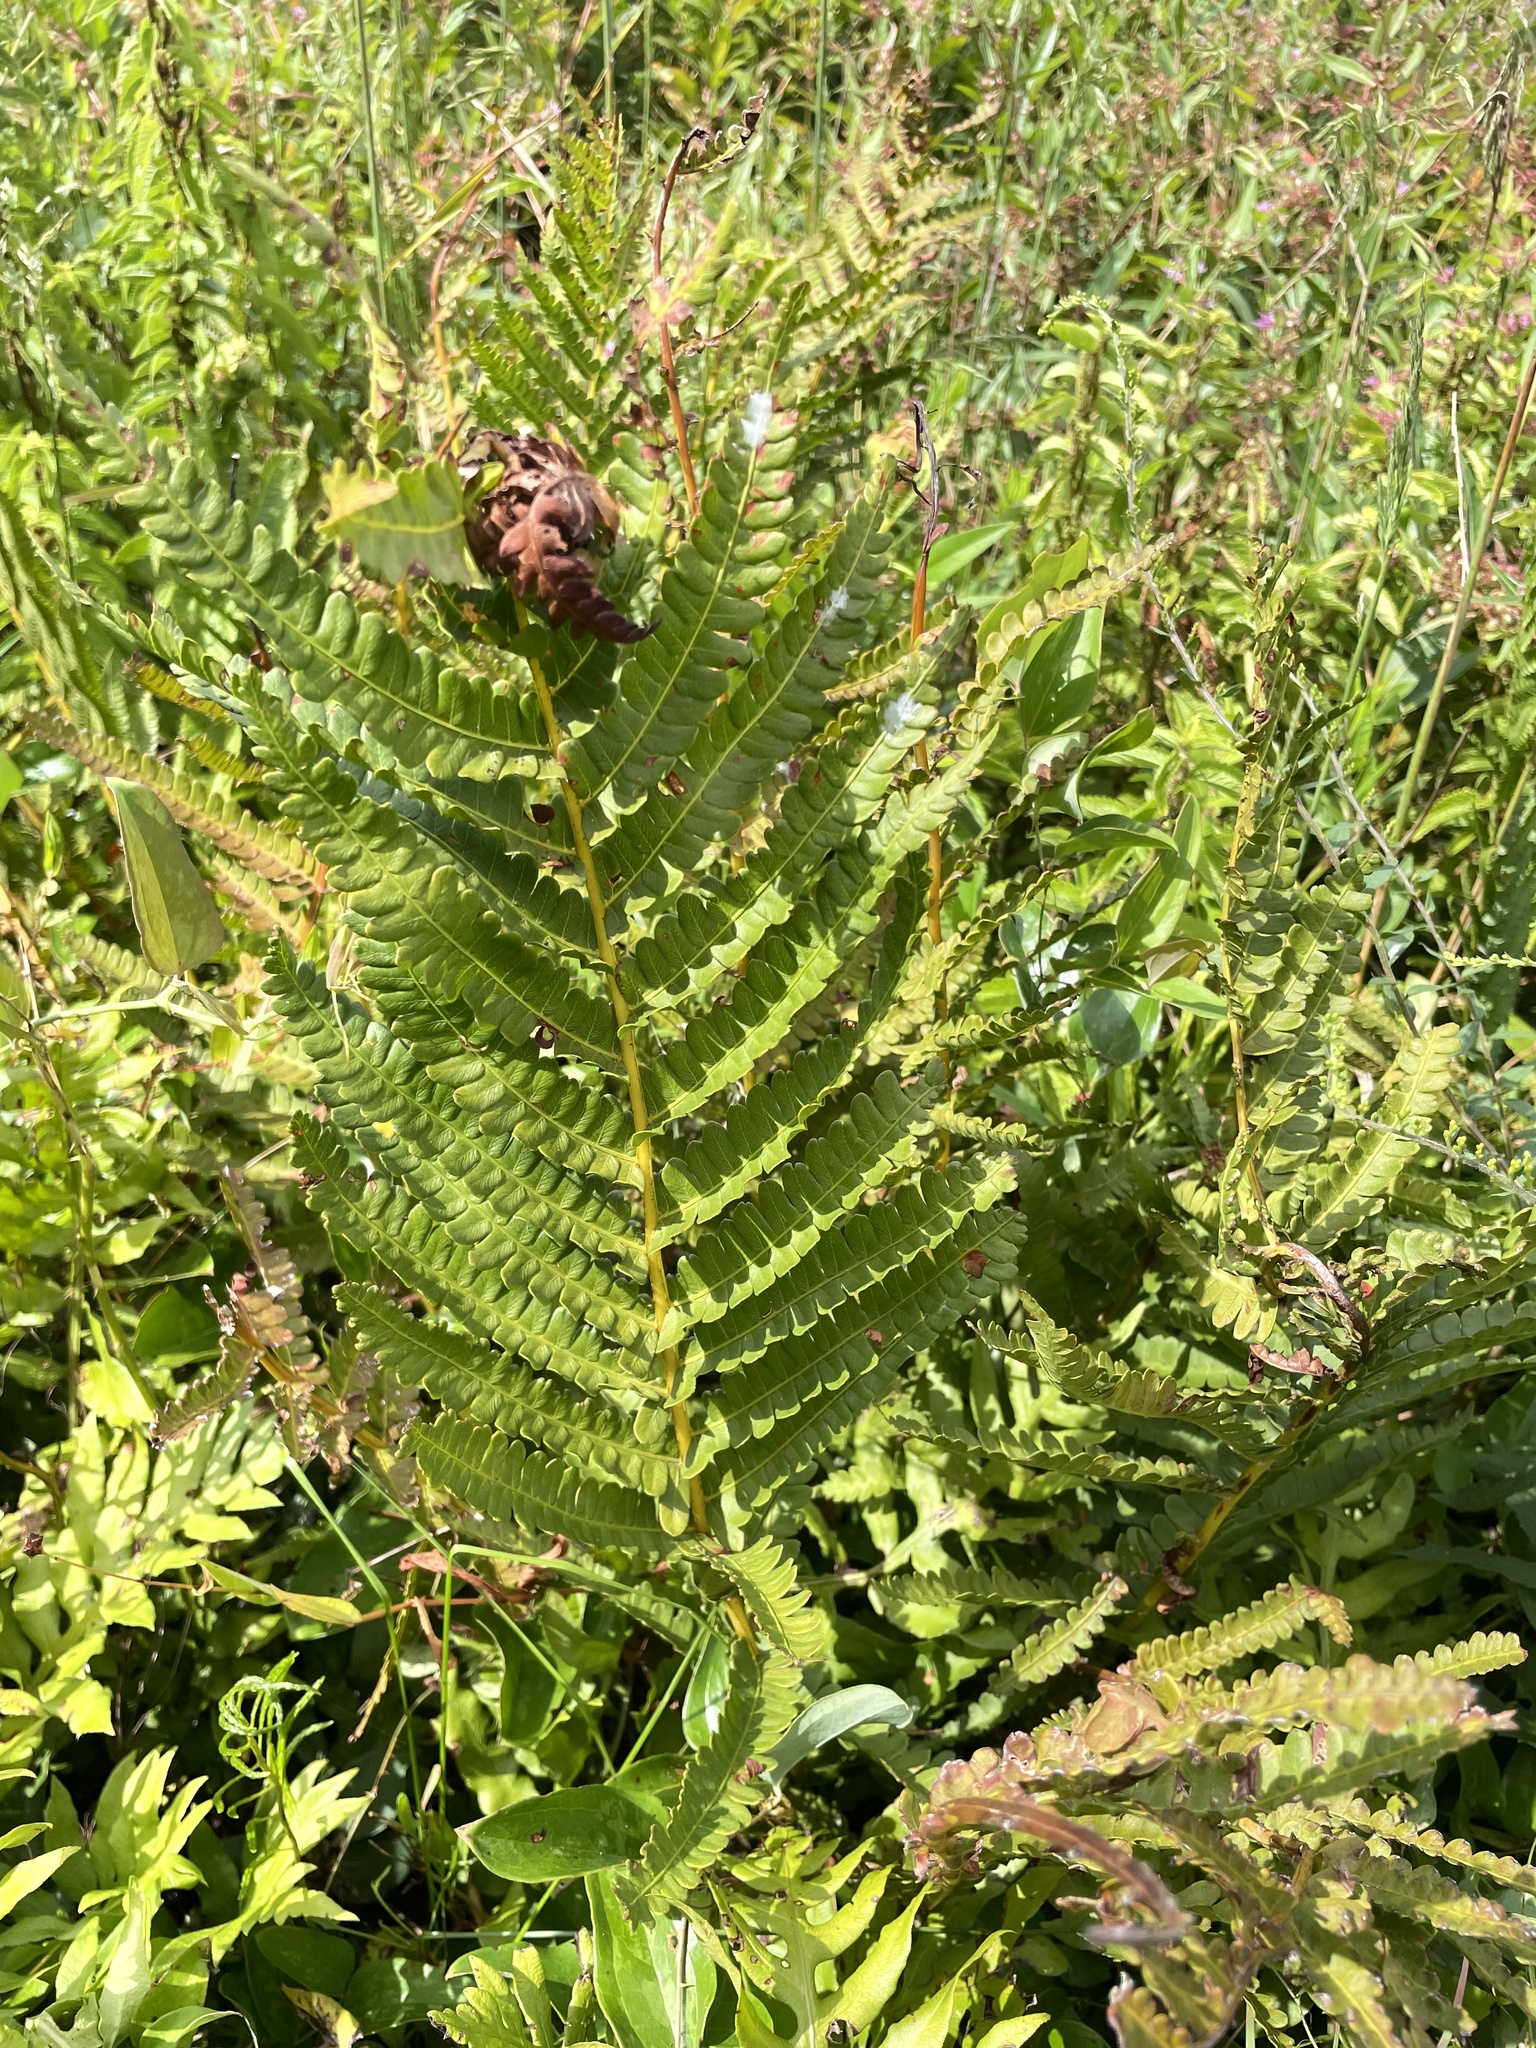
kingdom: Plantae
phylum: Tracheophyta
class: Polypodiopsida
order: Osmundales
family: Osmundaceae
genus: Osmundastrum
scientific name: Osmundastrum cinnamomeum
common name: Cinnamon fern
